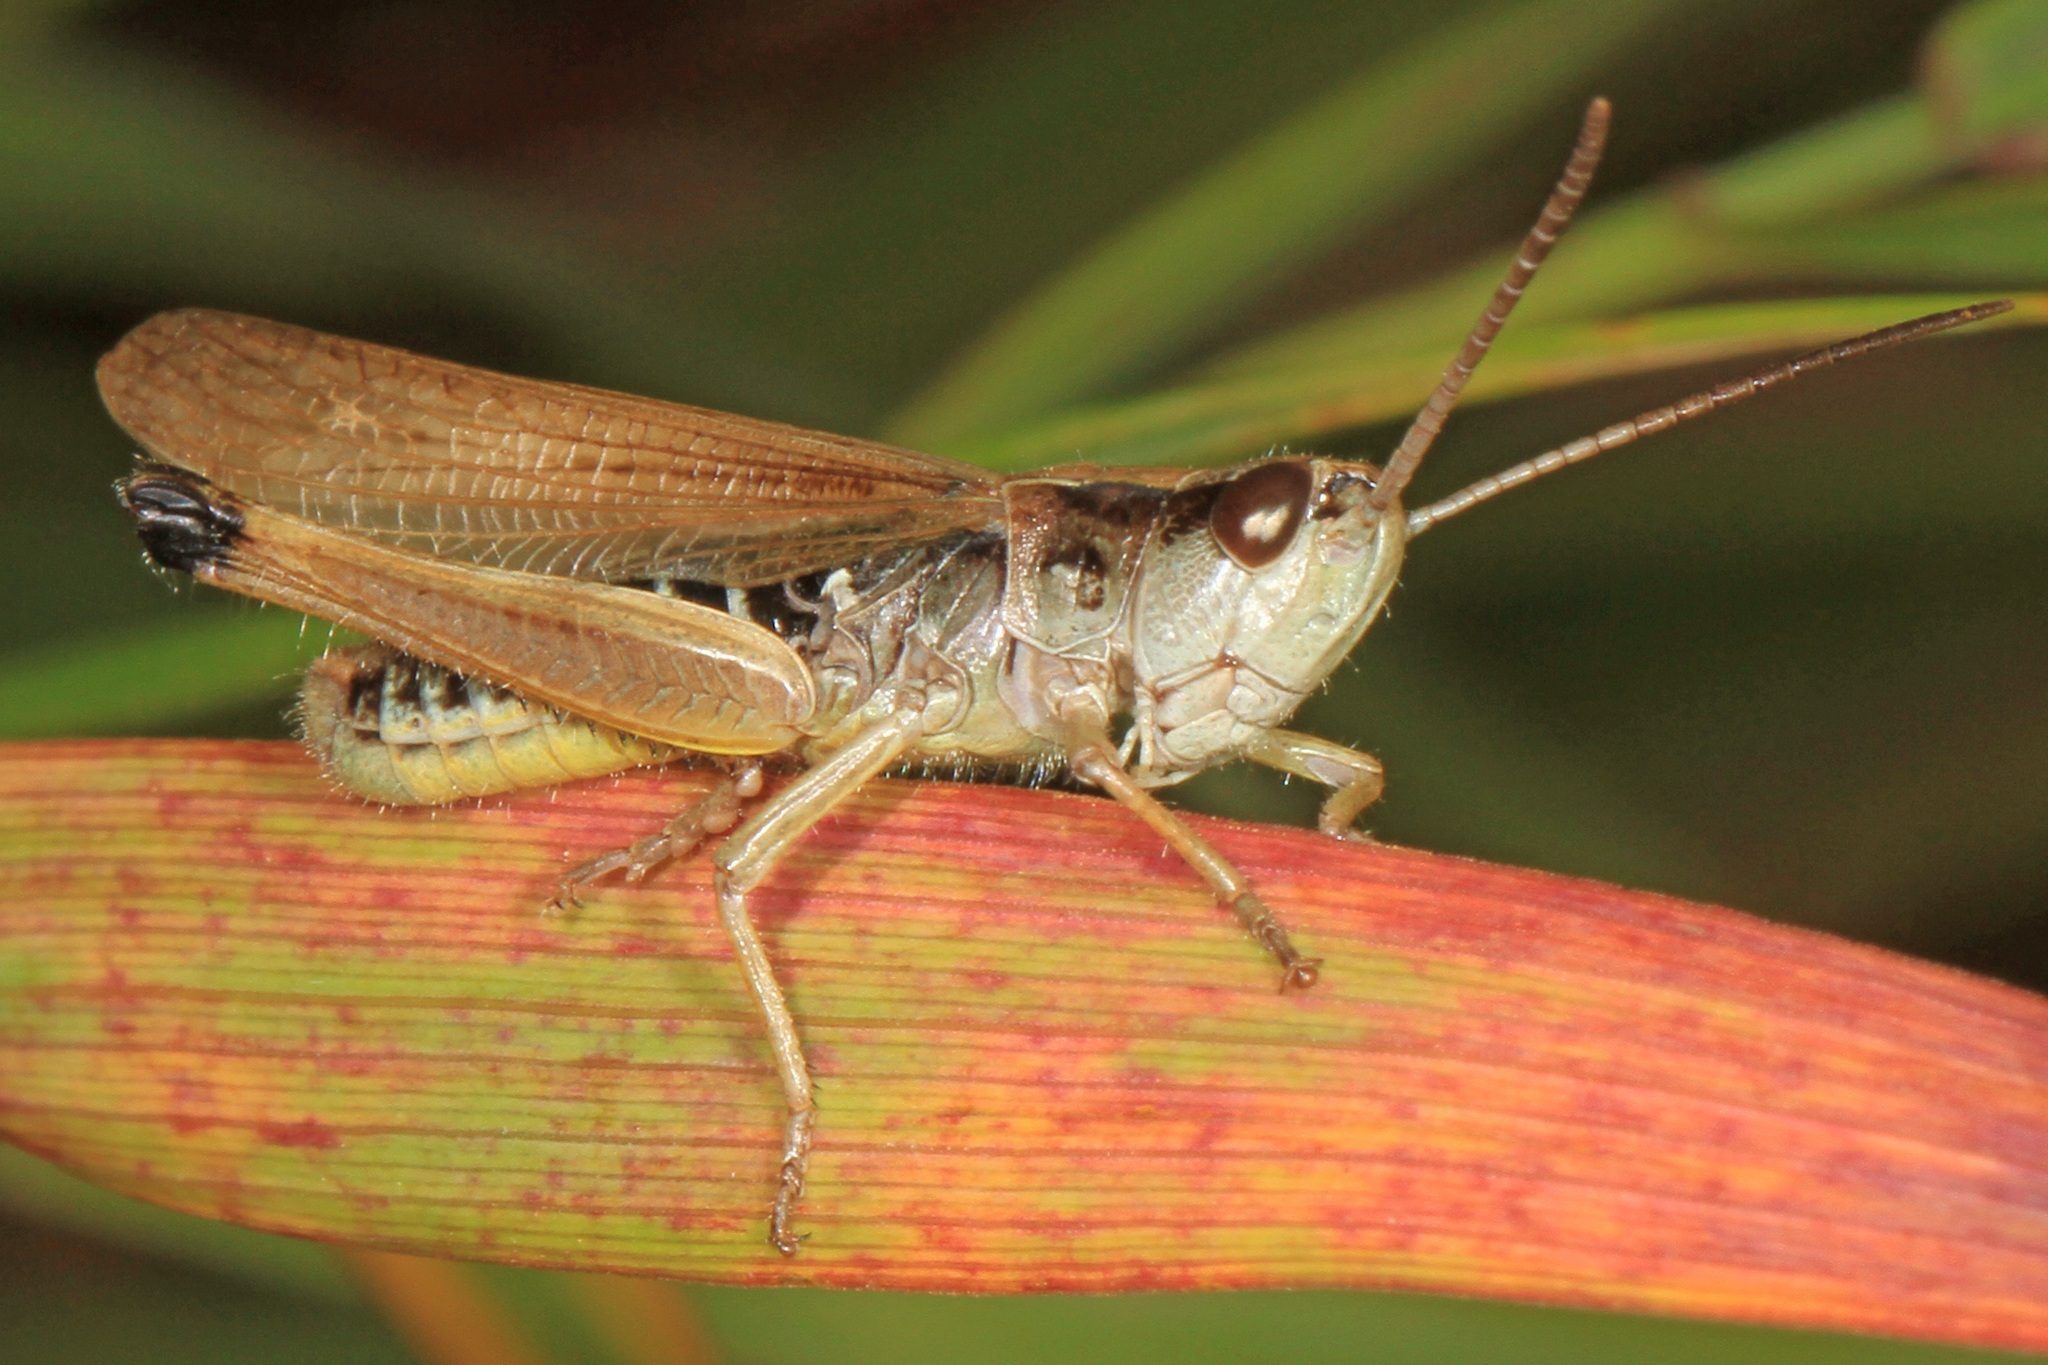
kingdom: Animalia
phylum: Arthropoda
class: Insecta
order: Orthoptera
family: Acrididae
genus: Pseudochorthippus
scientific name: Pseudochorthippus curtipennis
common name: Marsh meadow grasshopper
